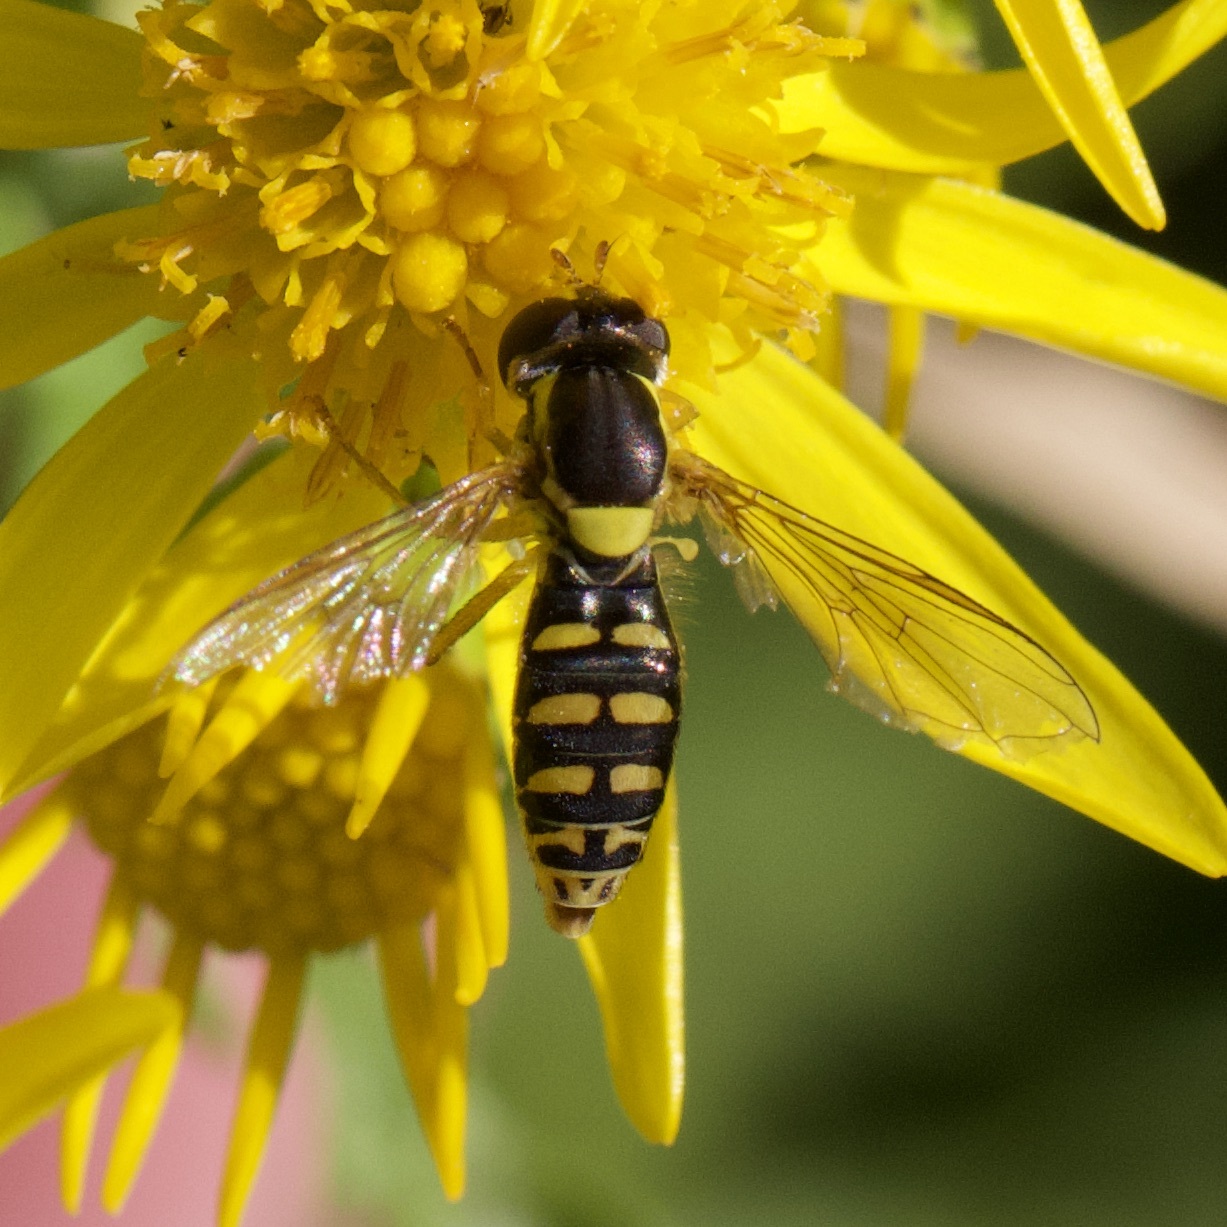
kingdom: Animalia
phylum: Arthropoda
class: Insecta
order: Diptera
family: Syrphidae
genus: Sphaerophoria
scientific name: Sphaerophoria
